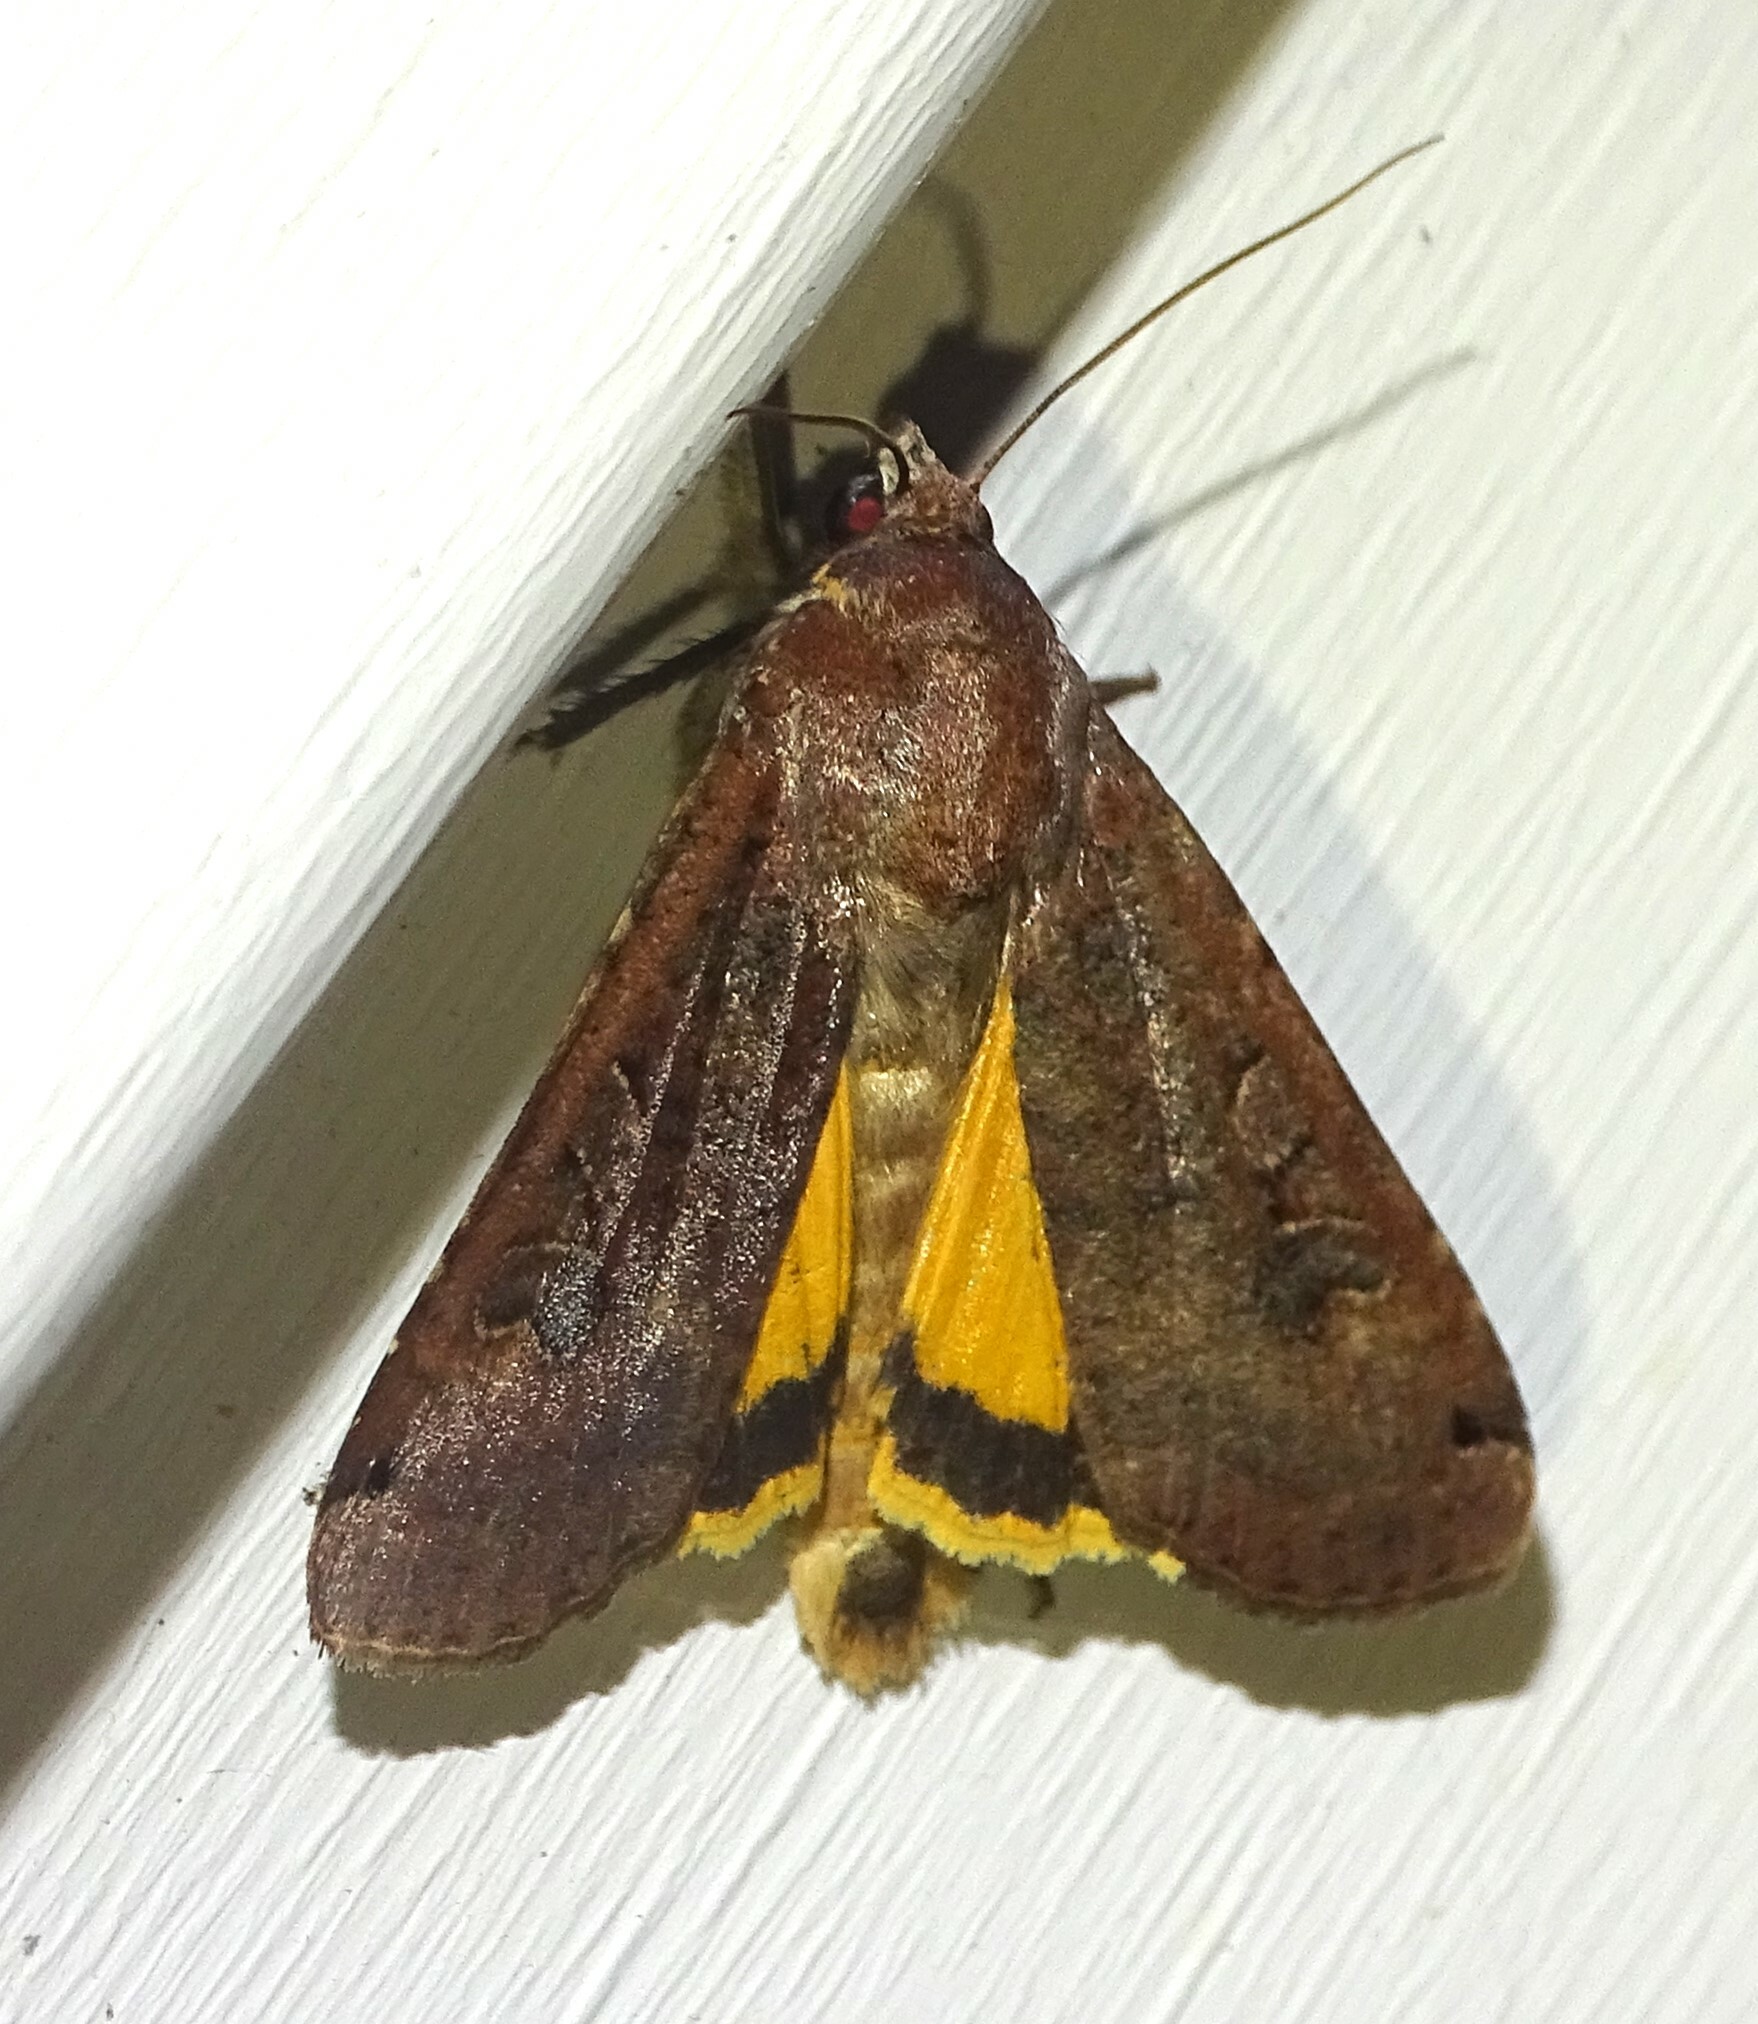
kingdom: Animalia
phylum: Arthropoda
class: Insecta
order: Lepidoptera
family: Noctuidae
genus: Noctua
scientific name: Noctua pronuba
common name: Large yellow underwing
